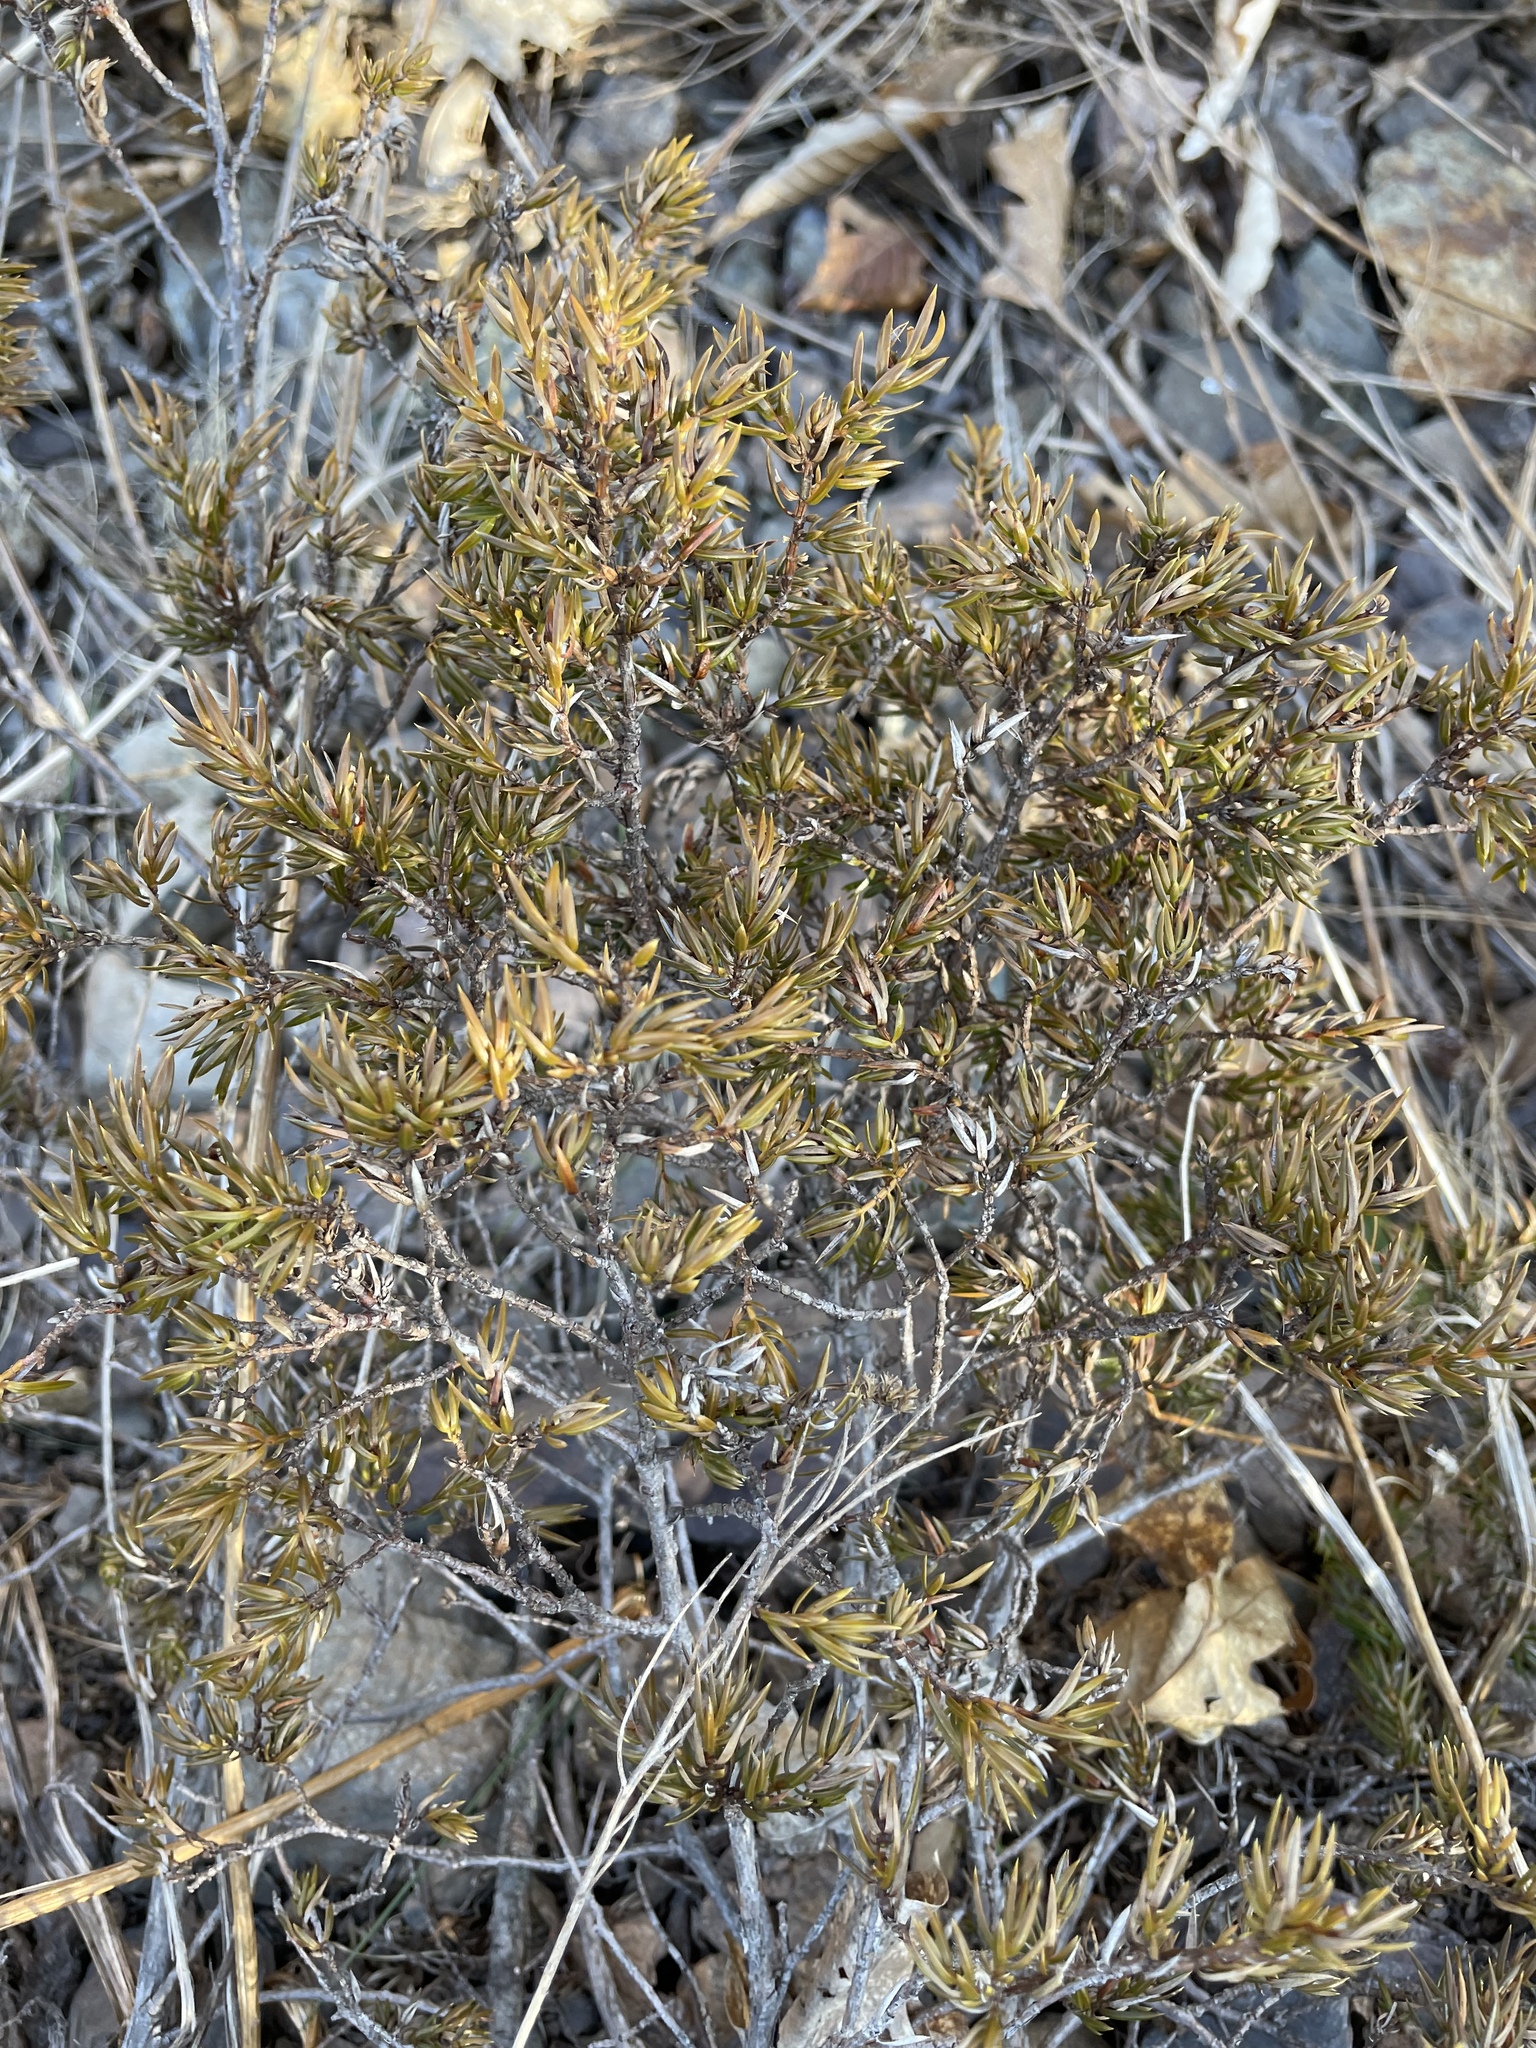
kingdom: Plantae
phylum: Tracheophyta
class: Pinopsida
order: Pinales
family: Cupressaceae
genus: Juniperus
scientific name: Juniperus communis
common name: Common juniper
